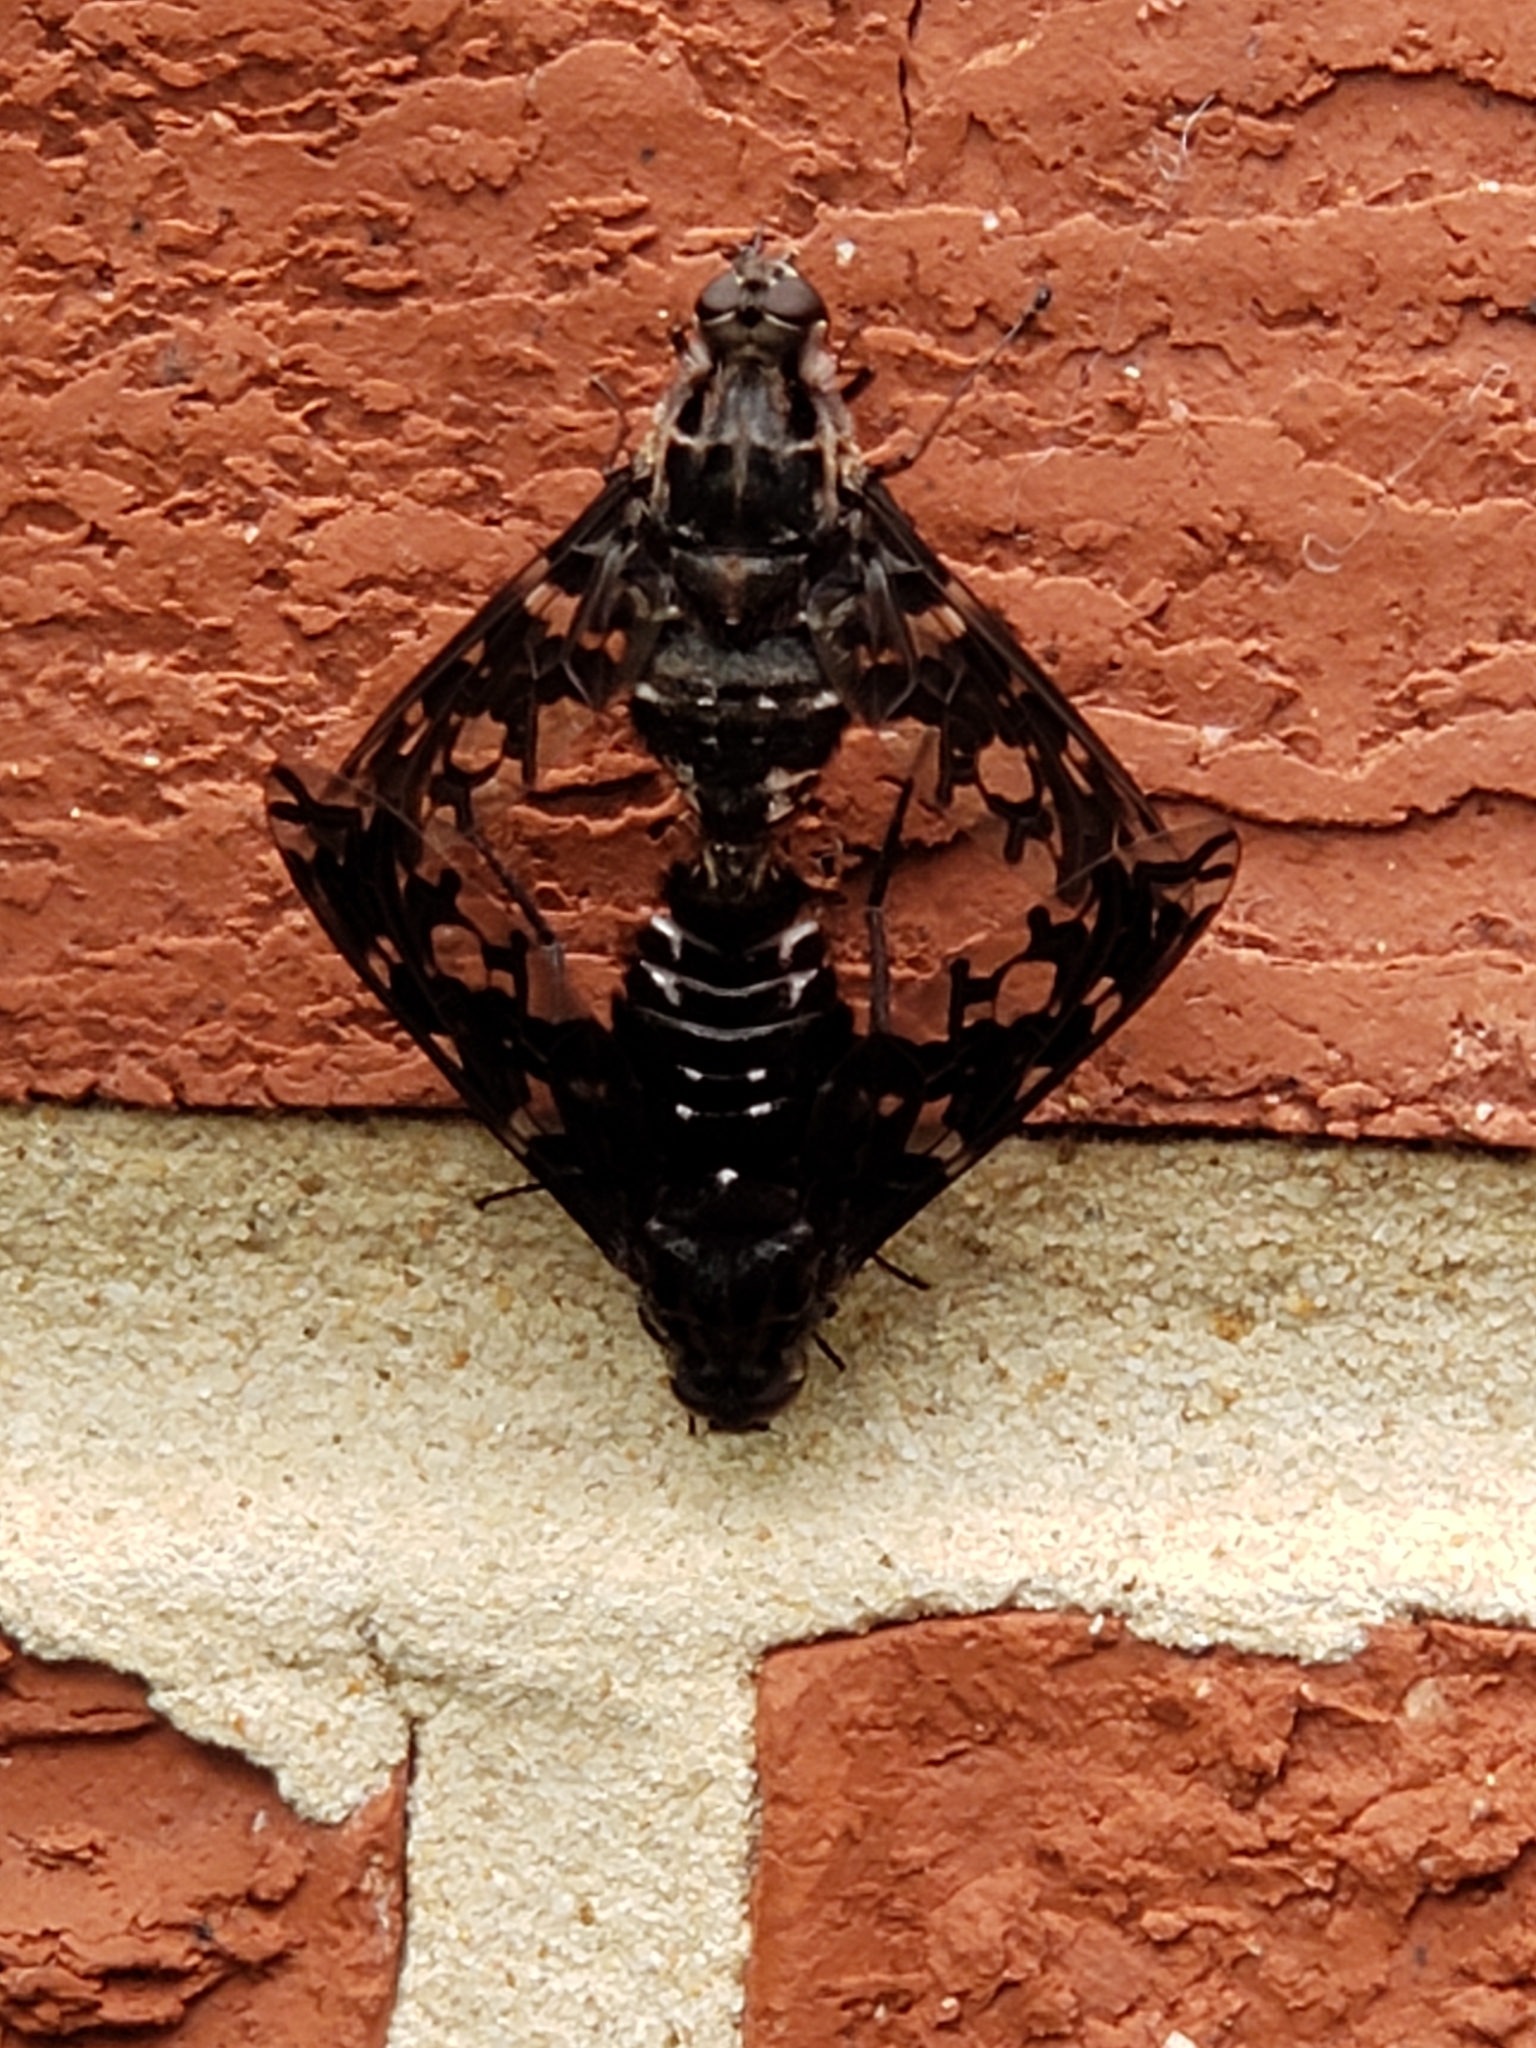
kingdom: Animalia
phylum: Arthropoda
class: Insecta
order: Diptera
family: Bombyliidae
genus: Xenox
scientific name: Xenox tigrinus
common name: Tiger bee fly
